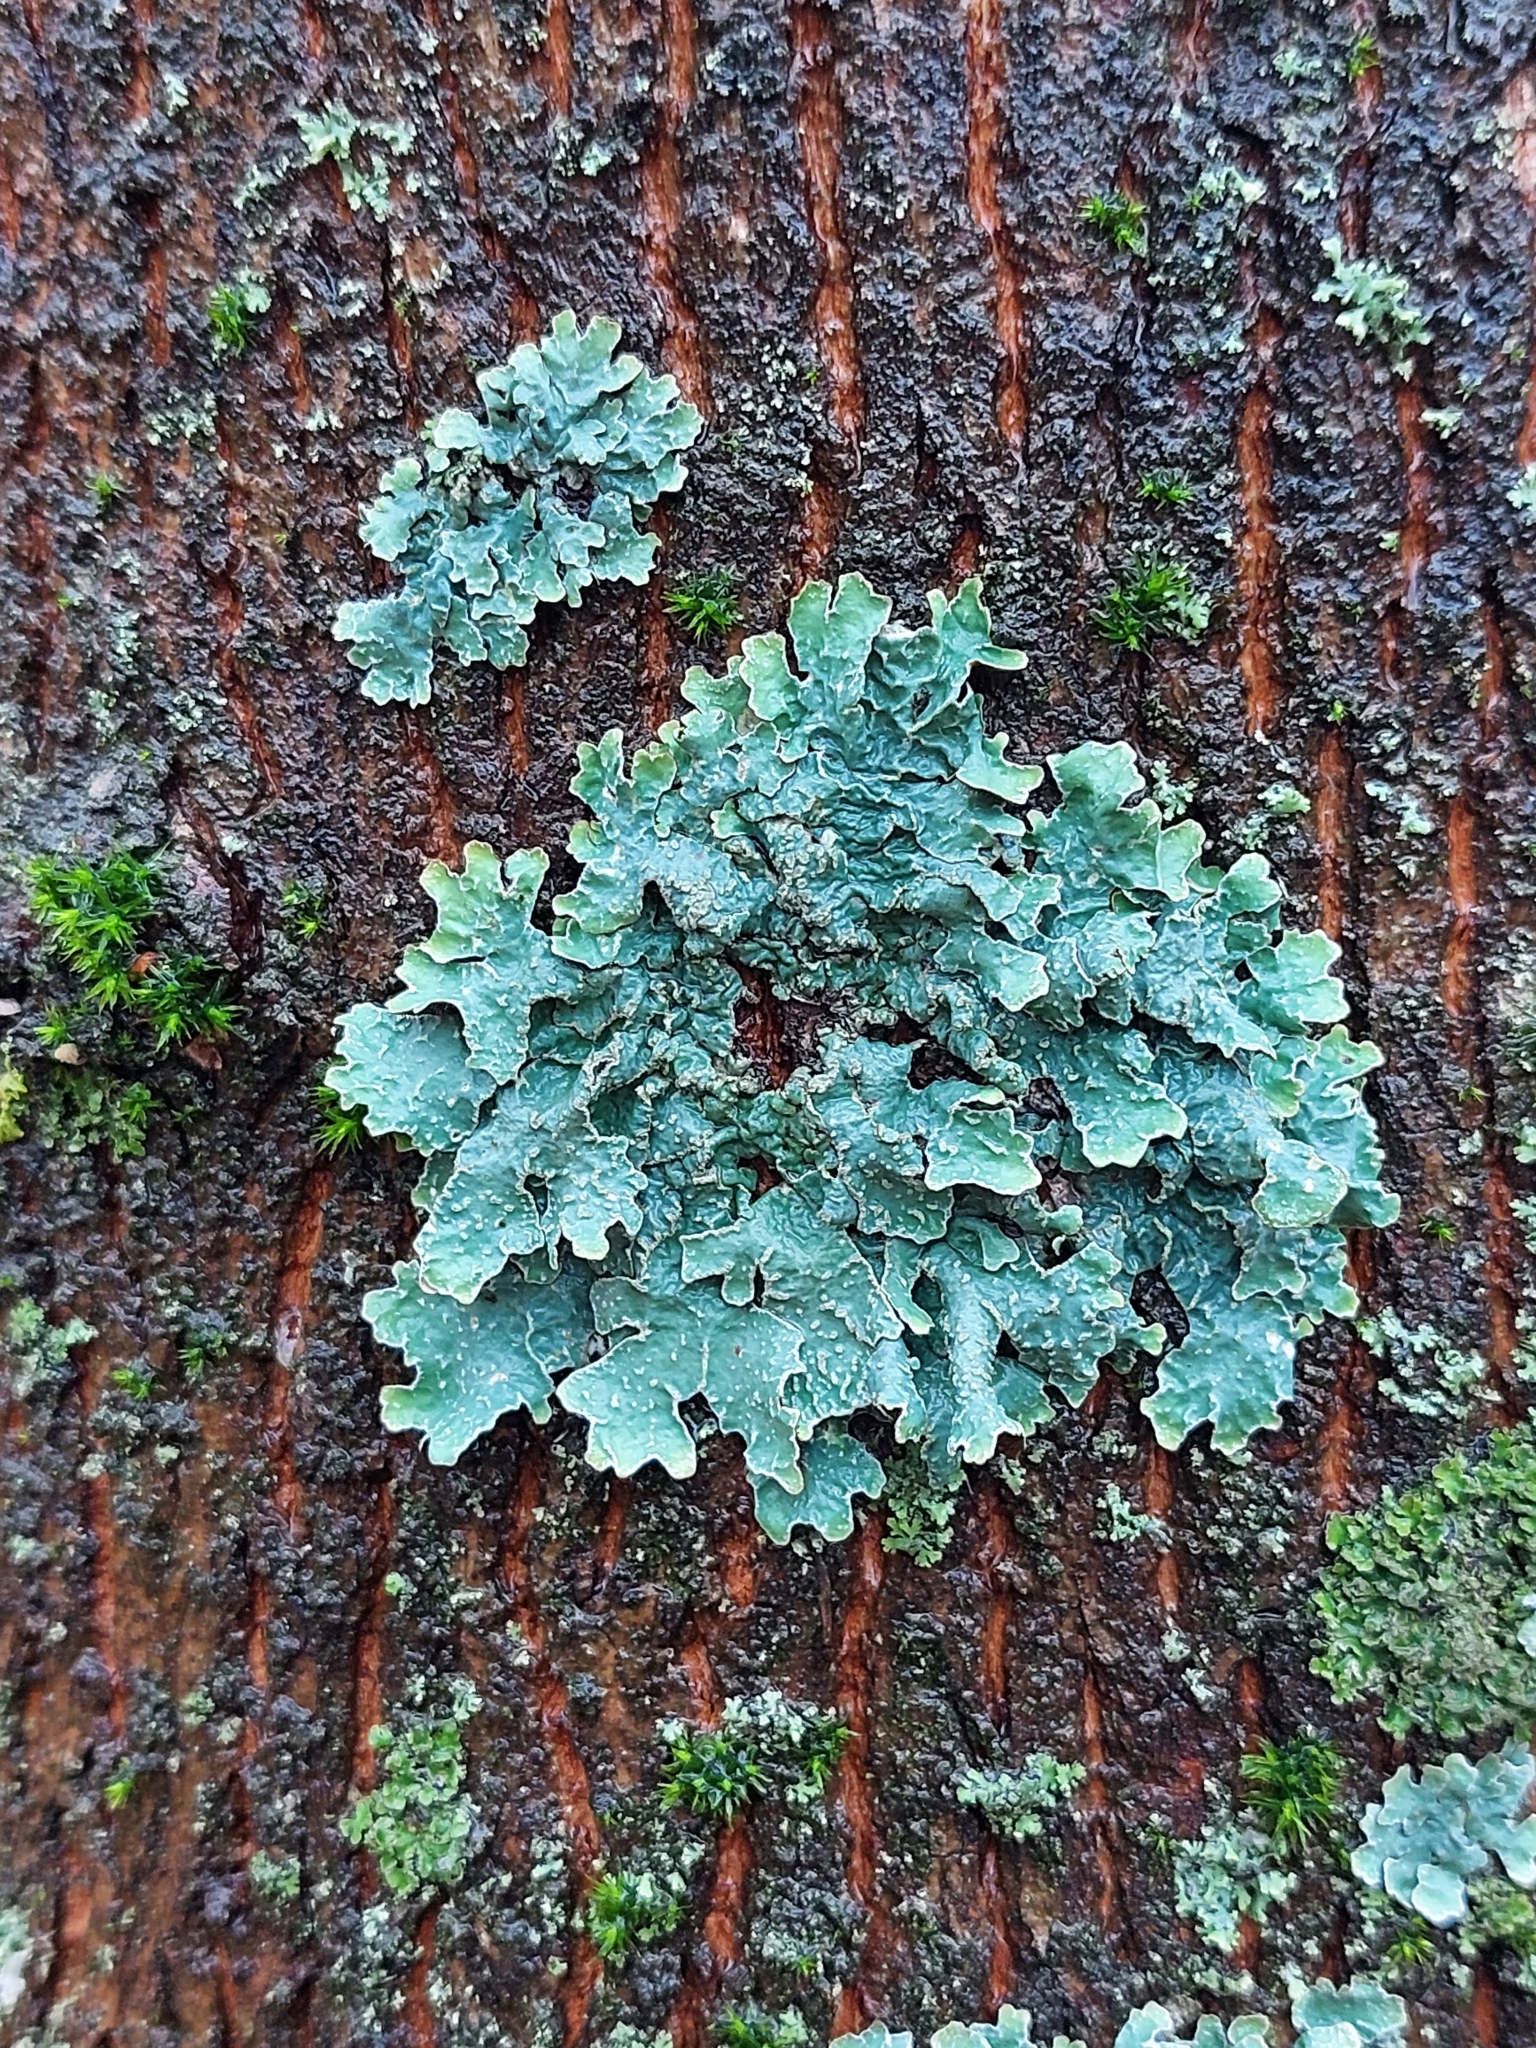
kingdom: Fungi
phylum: Ascomycota
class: Lecanoromycetes
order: Lecanorales
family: Parmeliaceae
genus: Parmelia
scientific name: Parmelia sulcata
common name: Netted shield lichen
